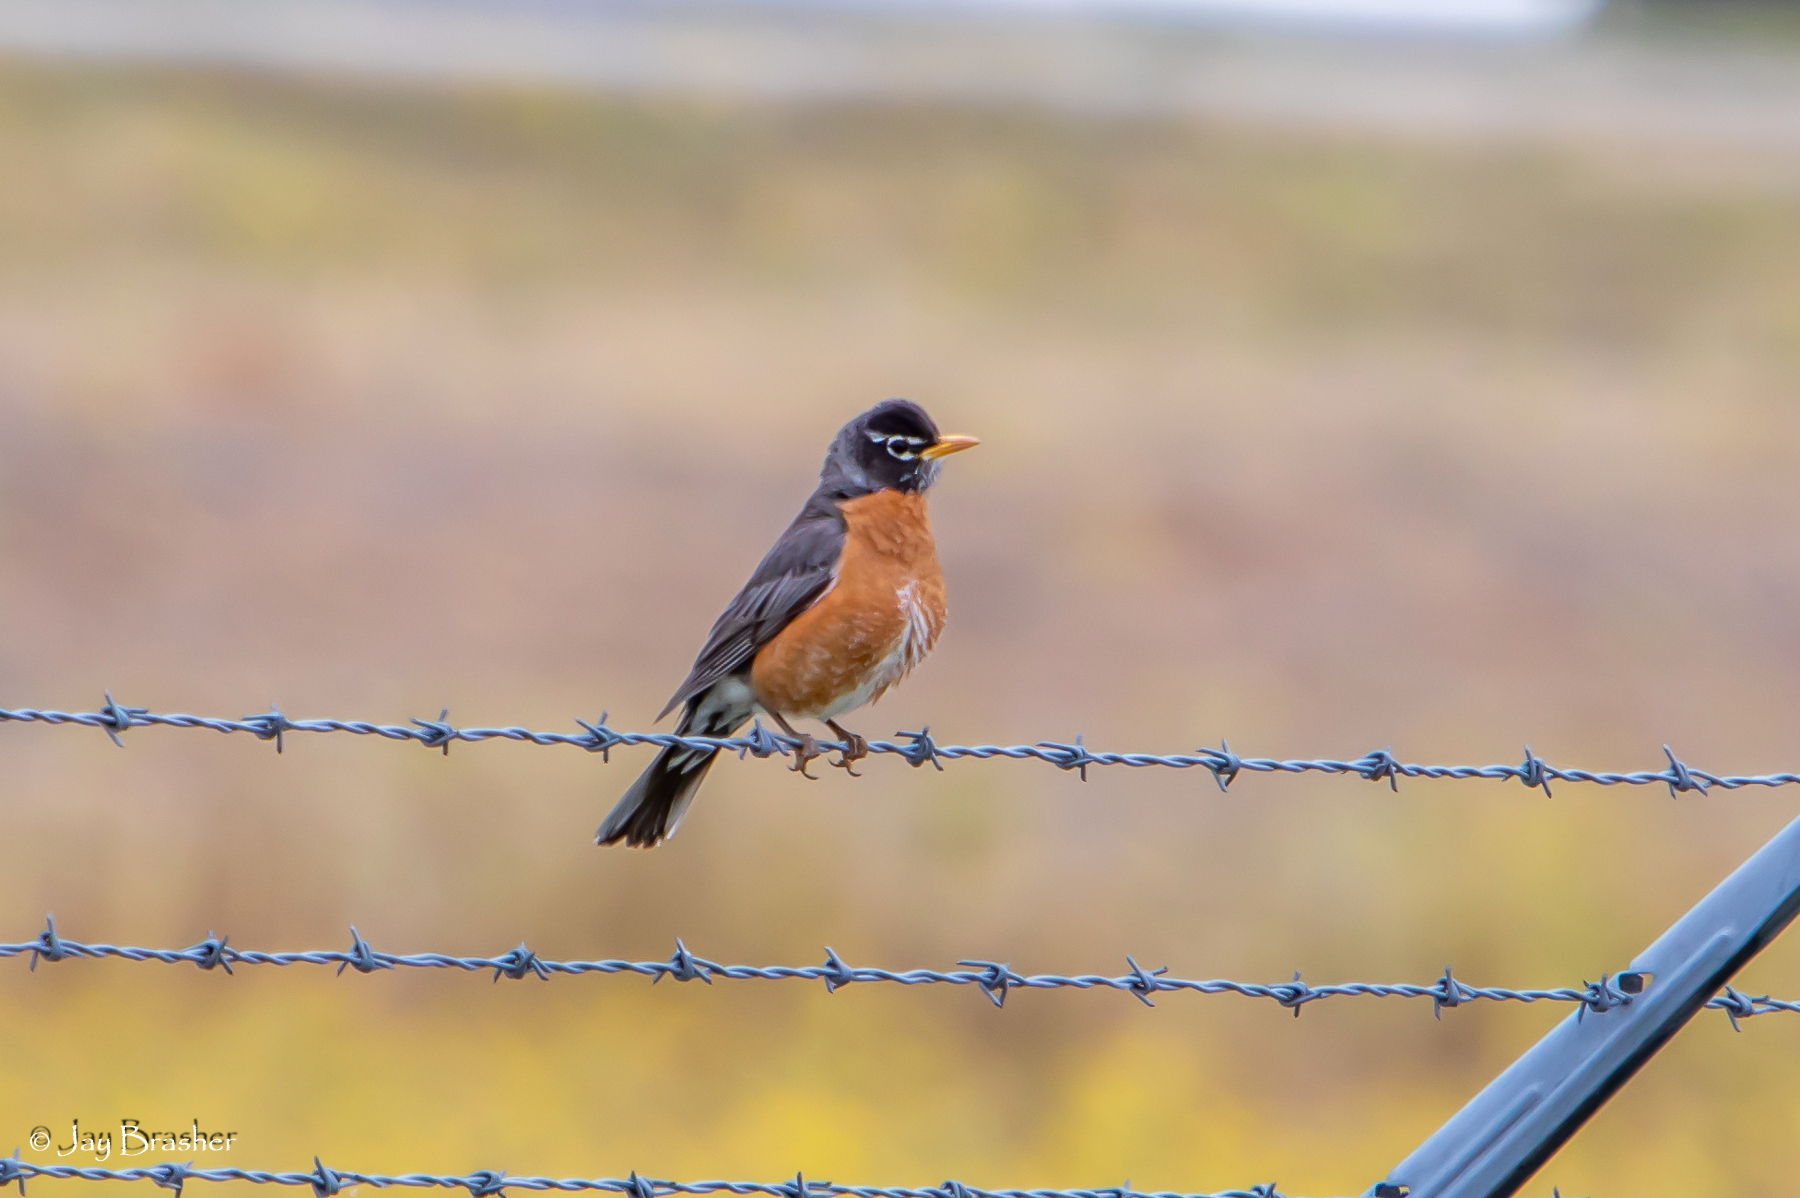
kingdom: Animalia
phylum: Chordata
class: Aves
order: Passeriformes
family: Turdidae
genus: Turdus
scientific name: Turdus migratorius
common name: American robin
